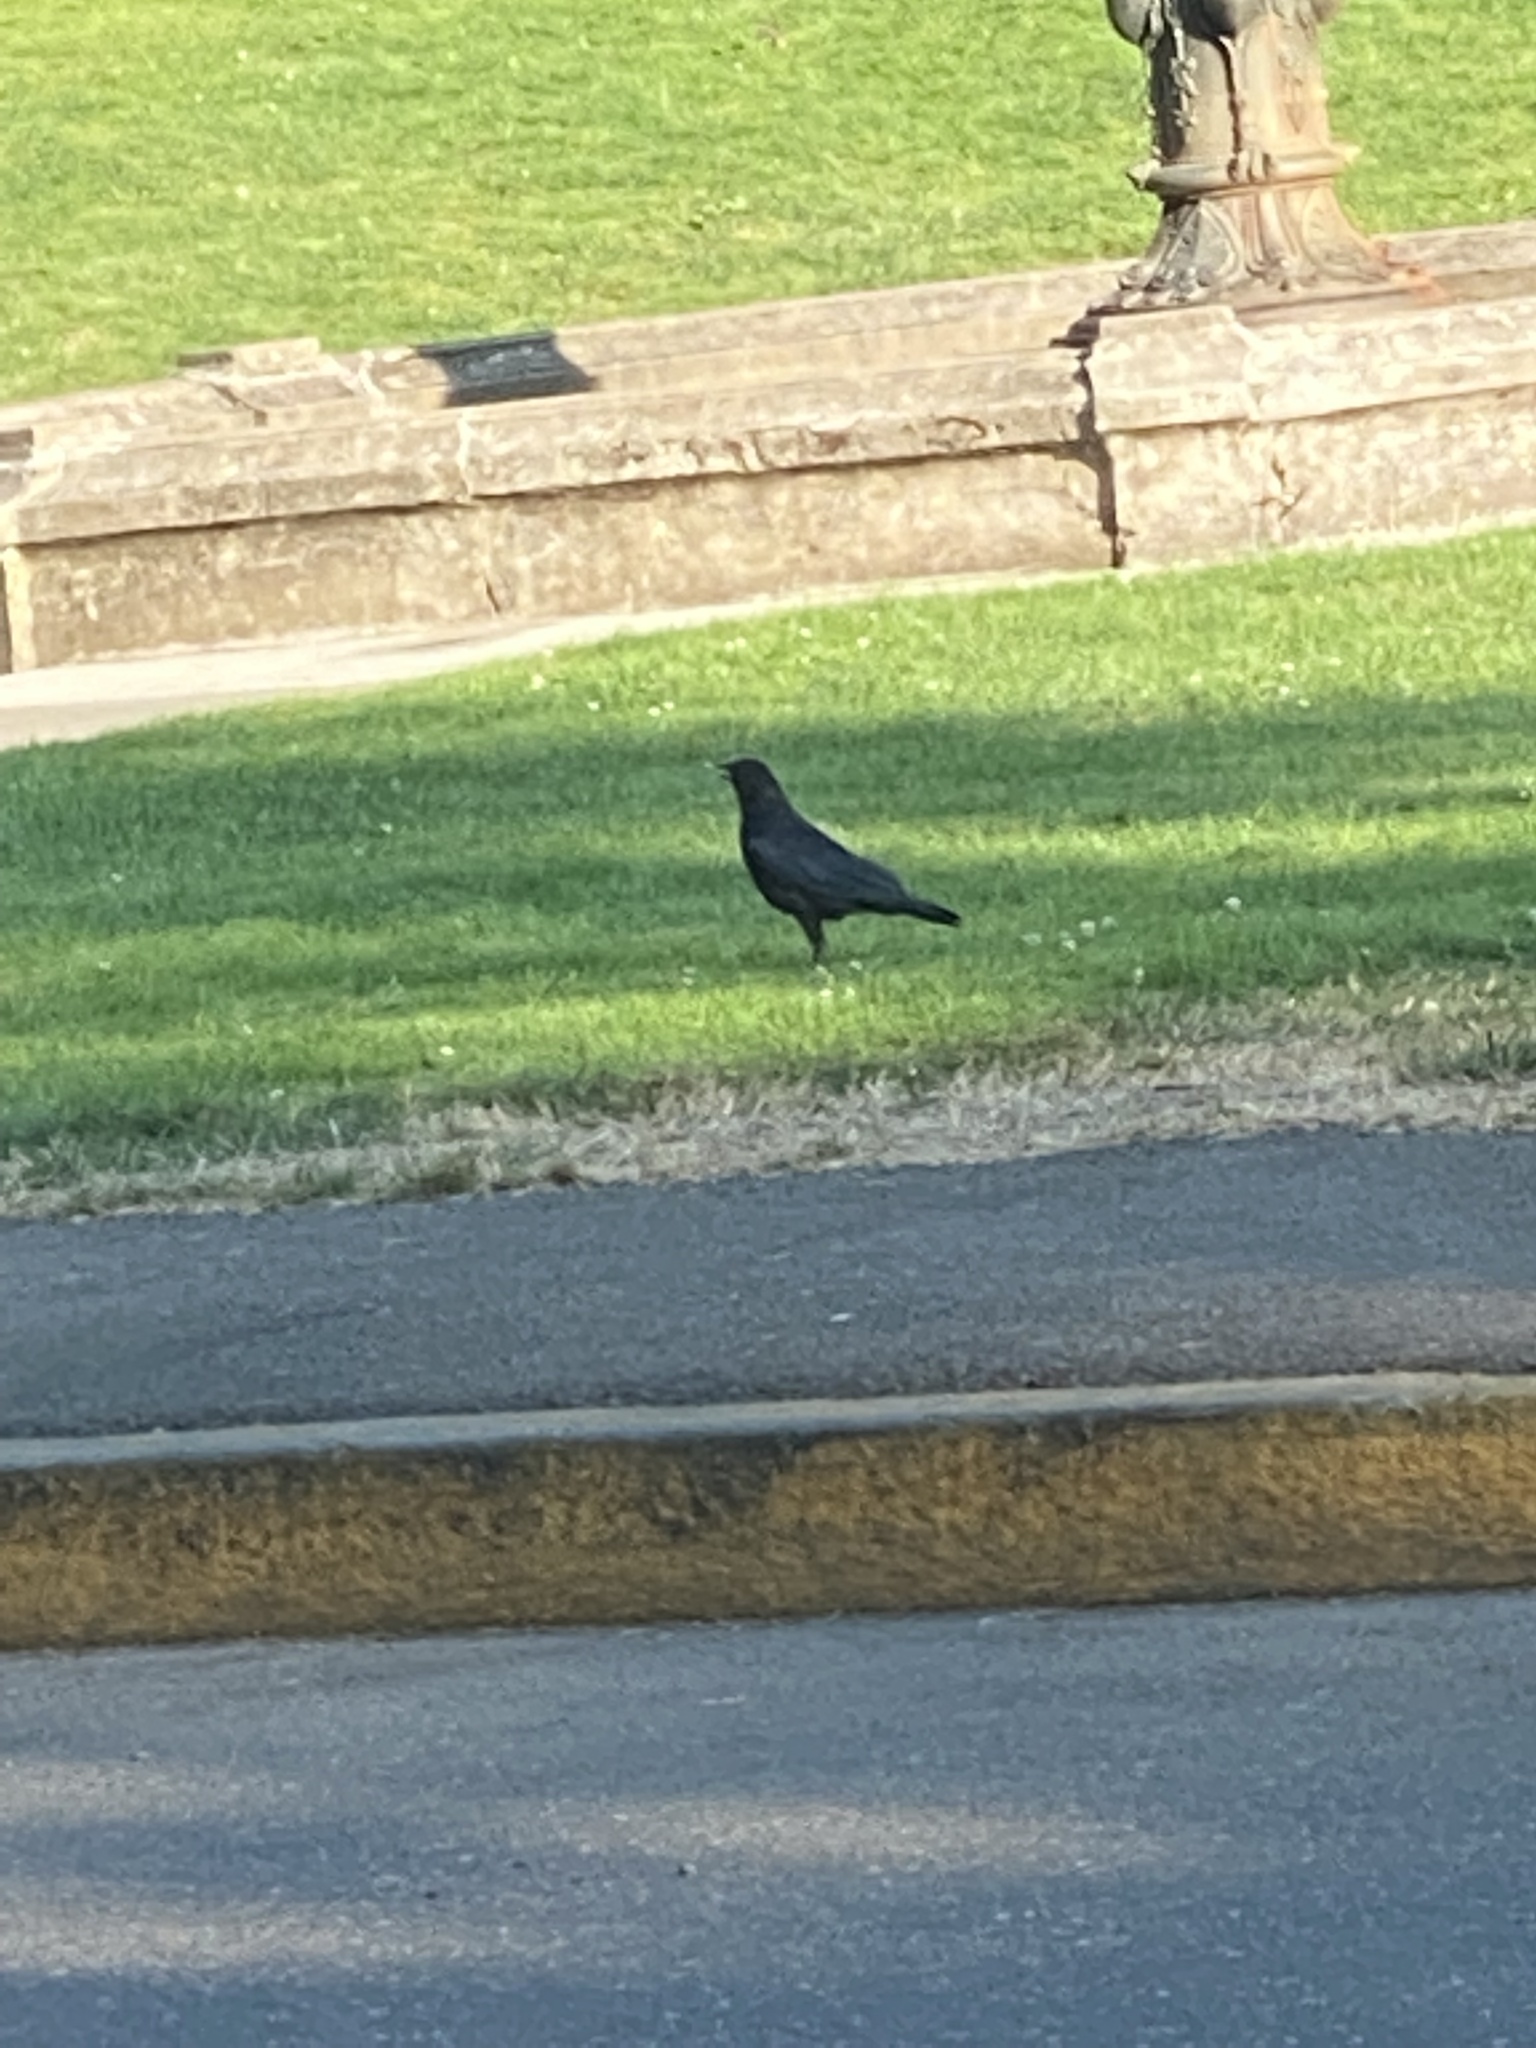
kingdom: Animalia
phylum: Chordata
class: Aves
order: Passeriformes
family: Corvidae
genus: Corvus
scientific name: Corvus brachyrhynchos
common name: American crow
